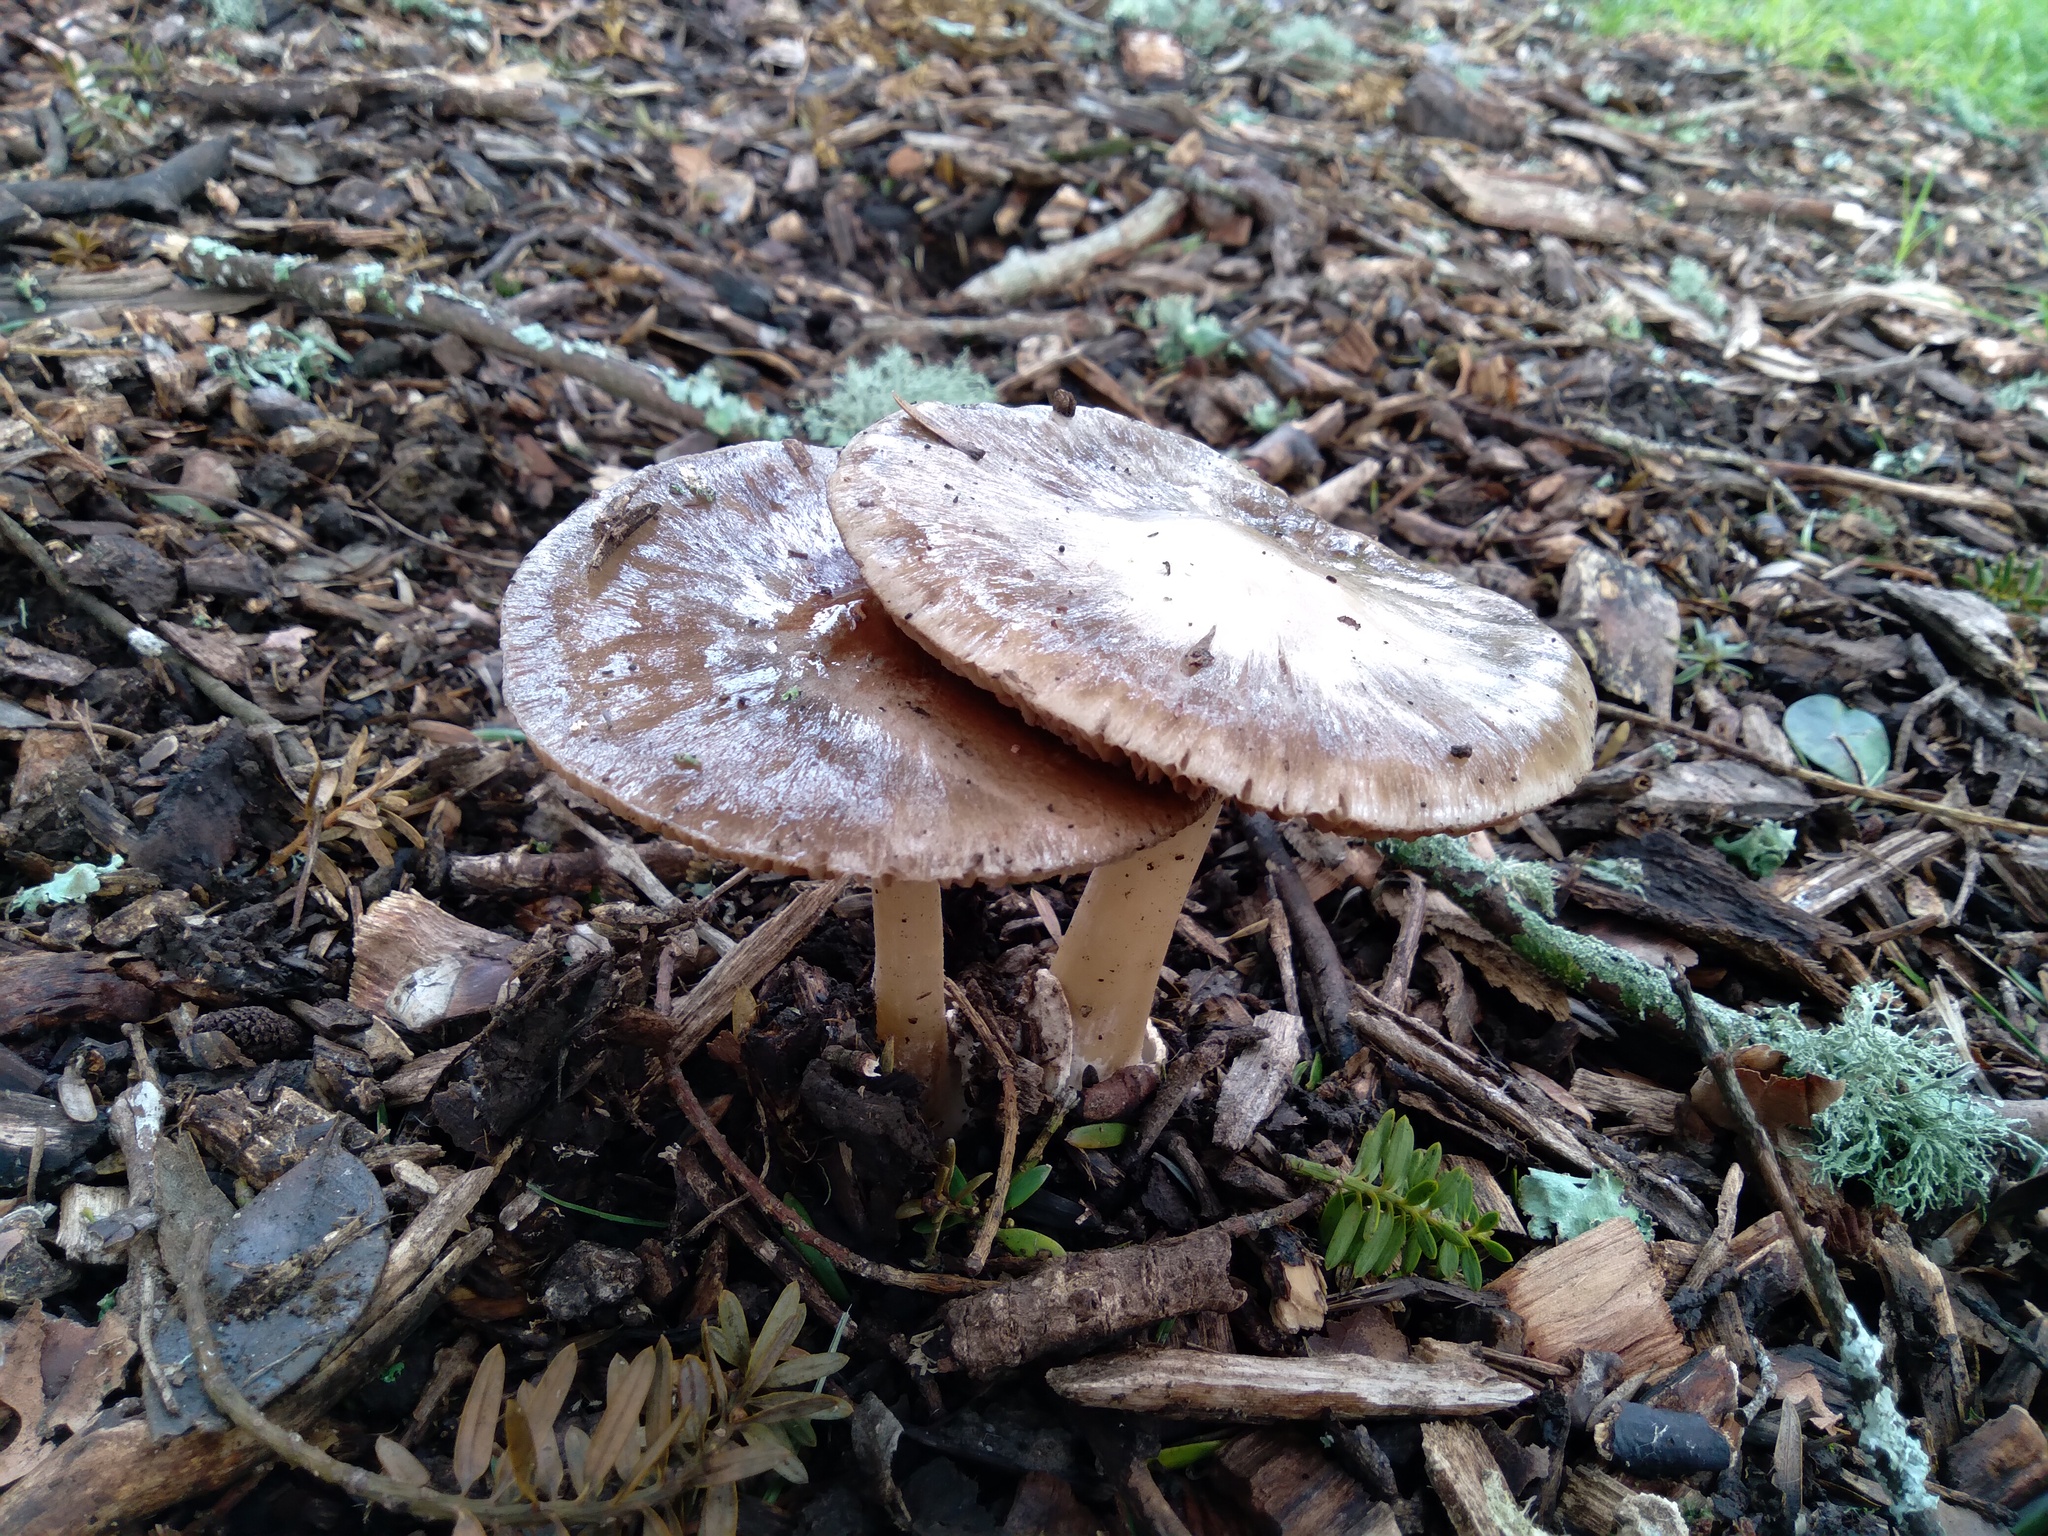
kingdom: Fungi
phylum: Basidiomycota
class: Agaricomycetes
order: Agaricales
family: Pluteaceae
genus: Volvopluteus
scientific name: Volvopluteus gloiocephalus
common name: Stubble rosegill
